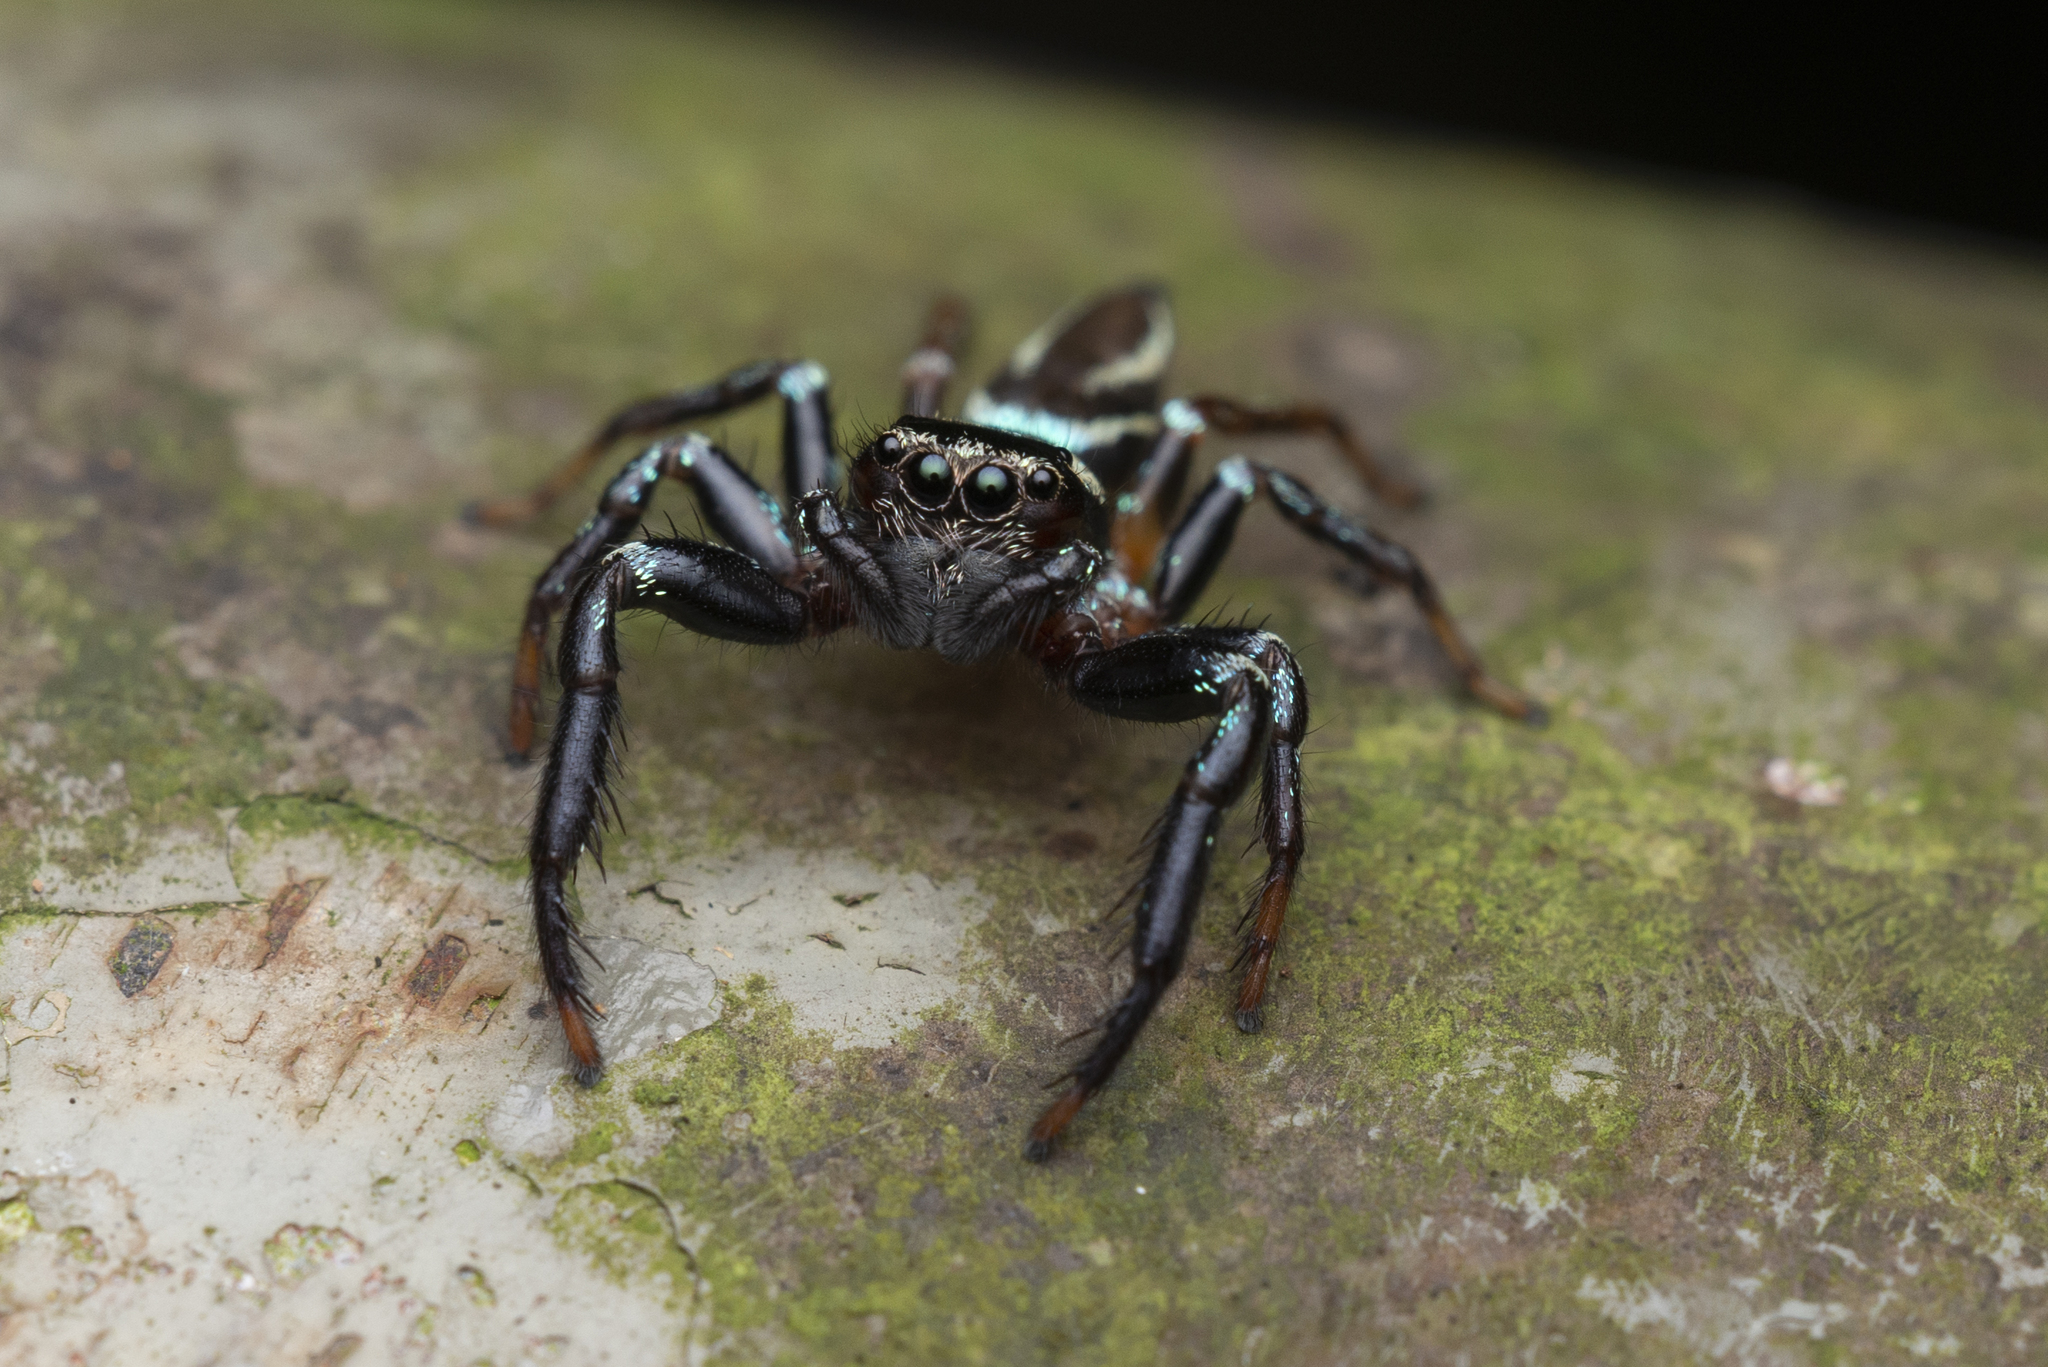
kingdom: Animalia
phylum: Arthropoda
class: Arachnida
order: Araneae
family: Salticidae
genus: Thiania
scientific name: Thiania suboppressa
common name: Jumping spider
